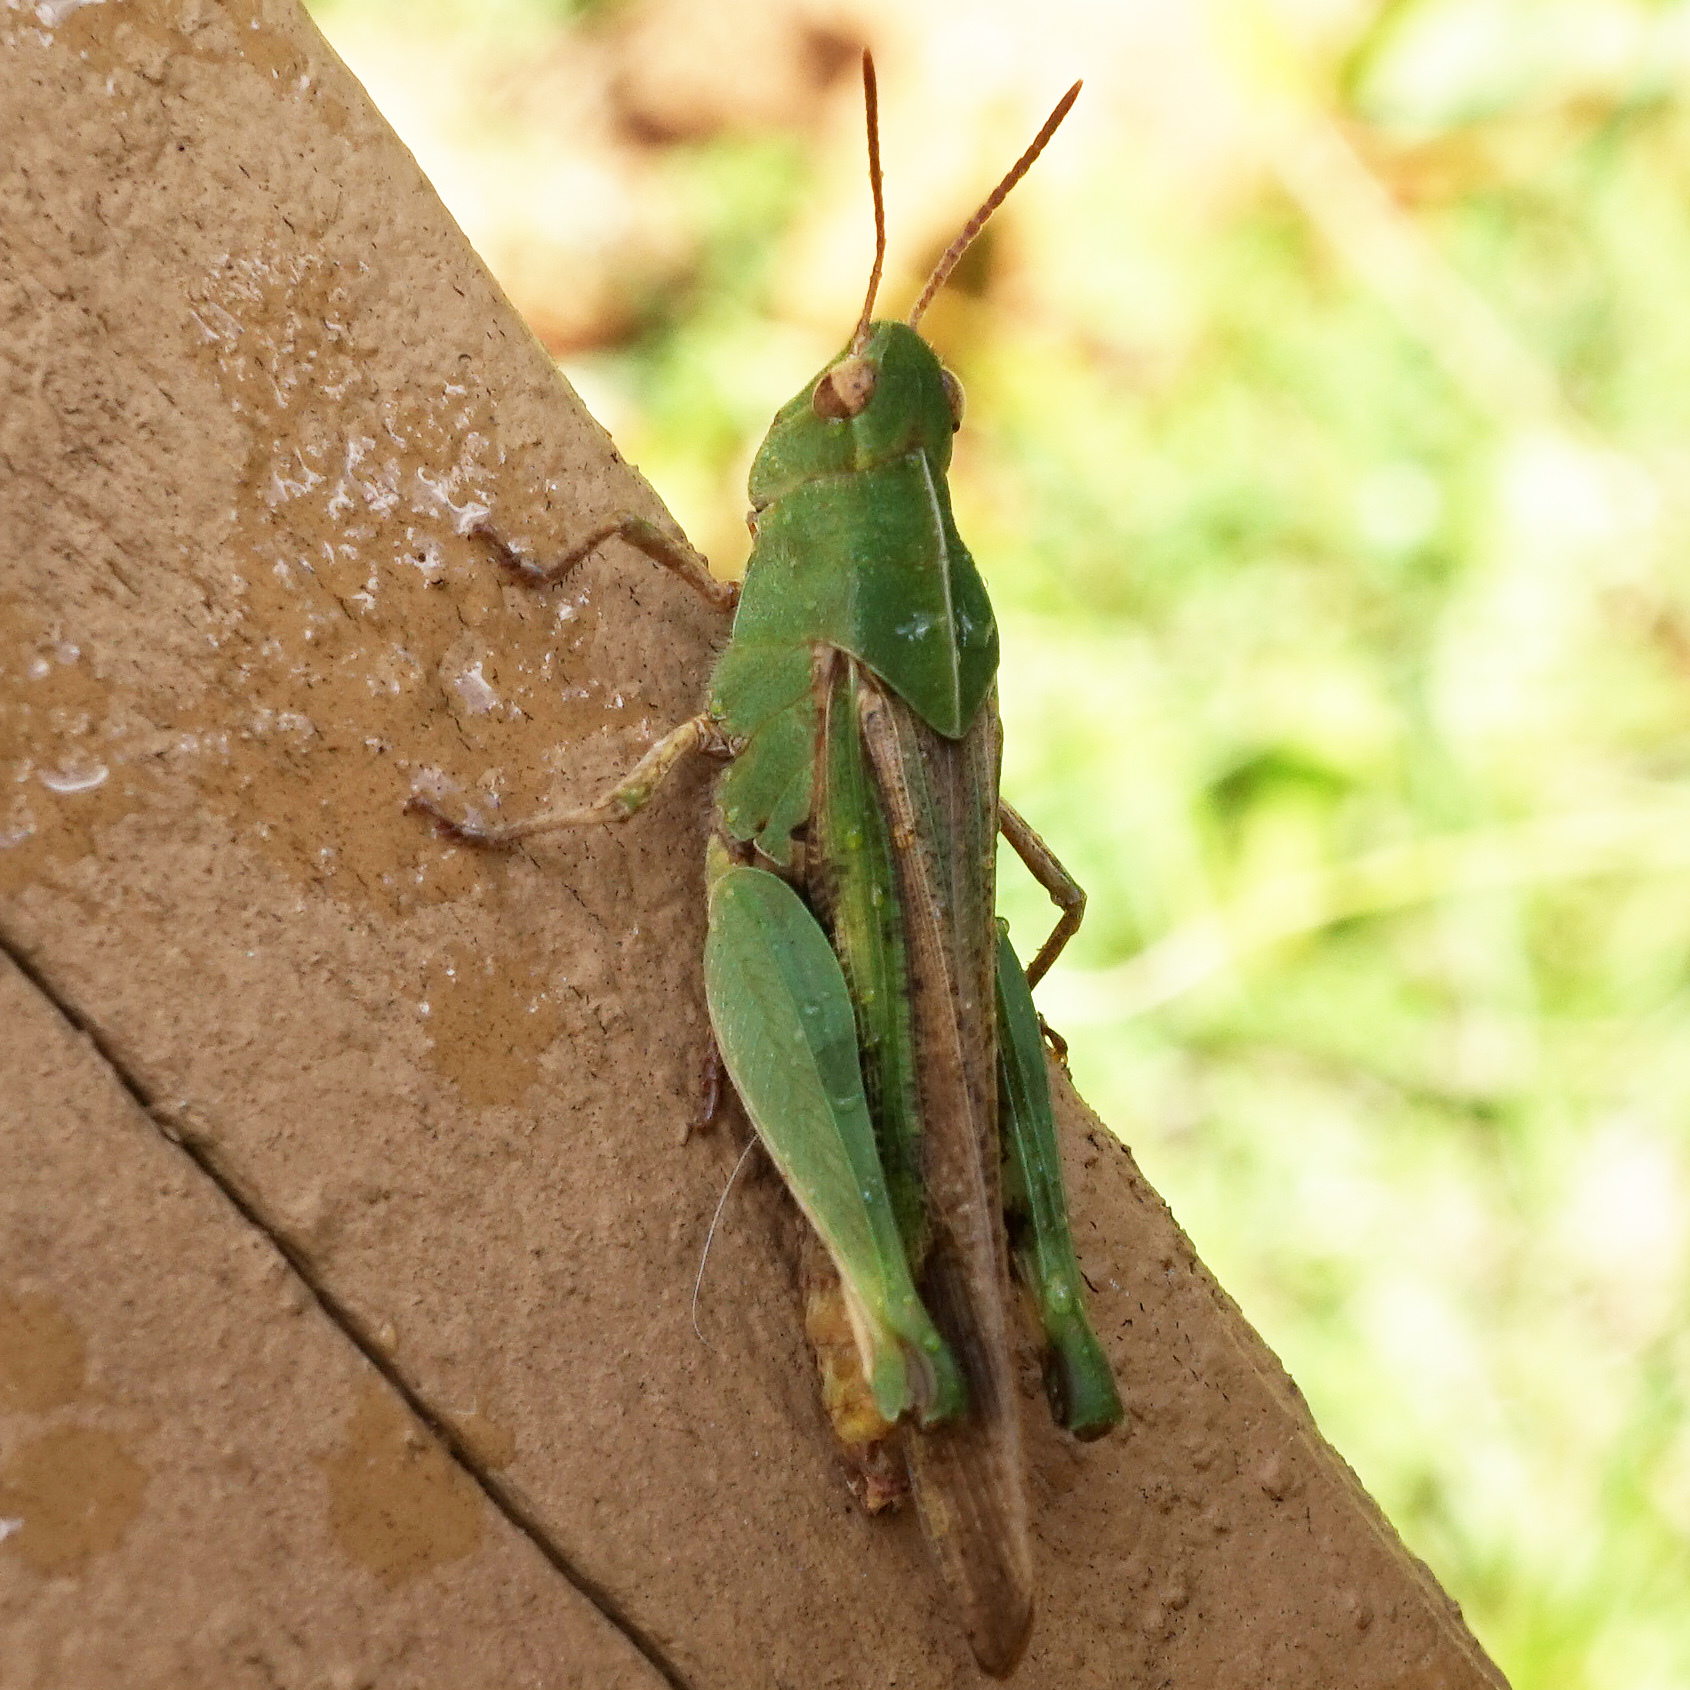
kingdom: Animalia
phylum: Arthropoda
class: Insecta
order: Orthoptera
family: Acrididae
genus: Chortophaga
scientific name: Chortophaga viridifasciata
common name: Green-striped grasshopper
